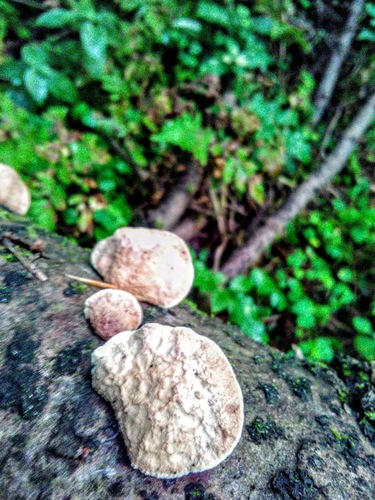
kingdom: Fungi
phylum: Basidiomycota
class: Agaricomycetes
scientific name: Agaricomycetes
